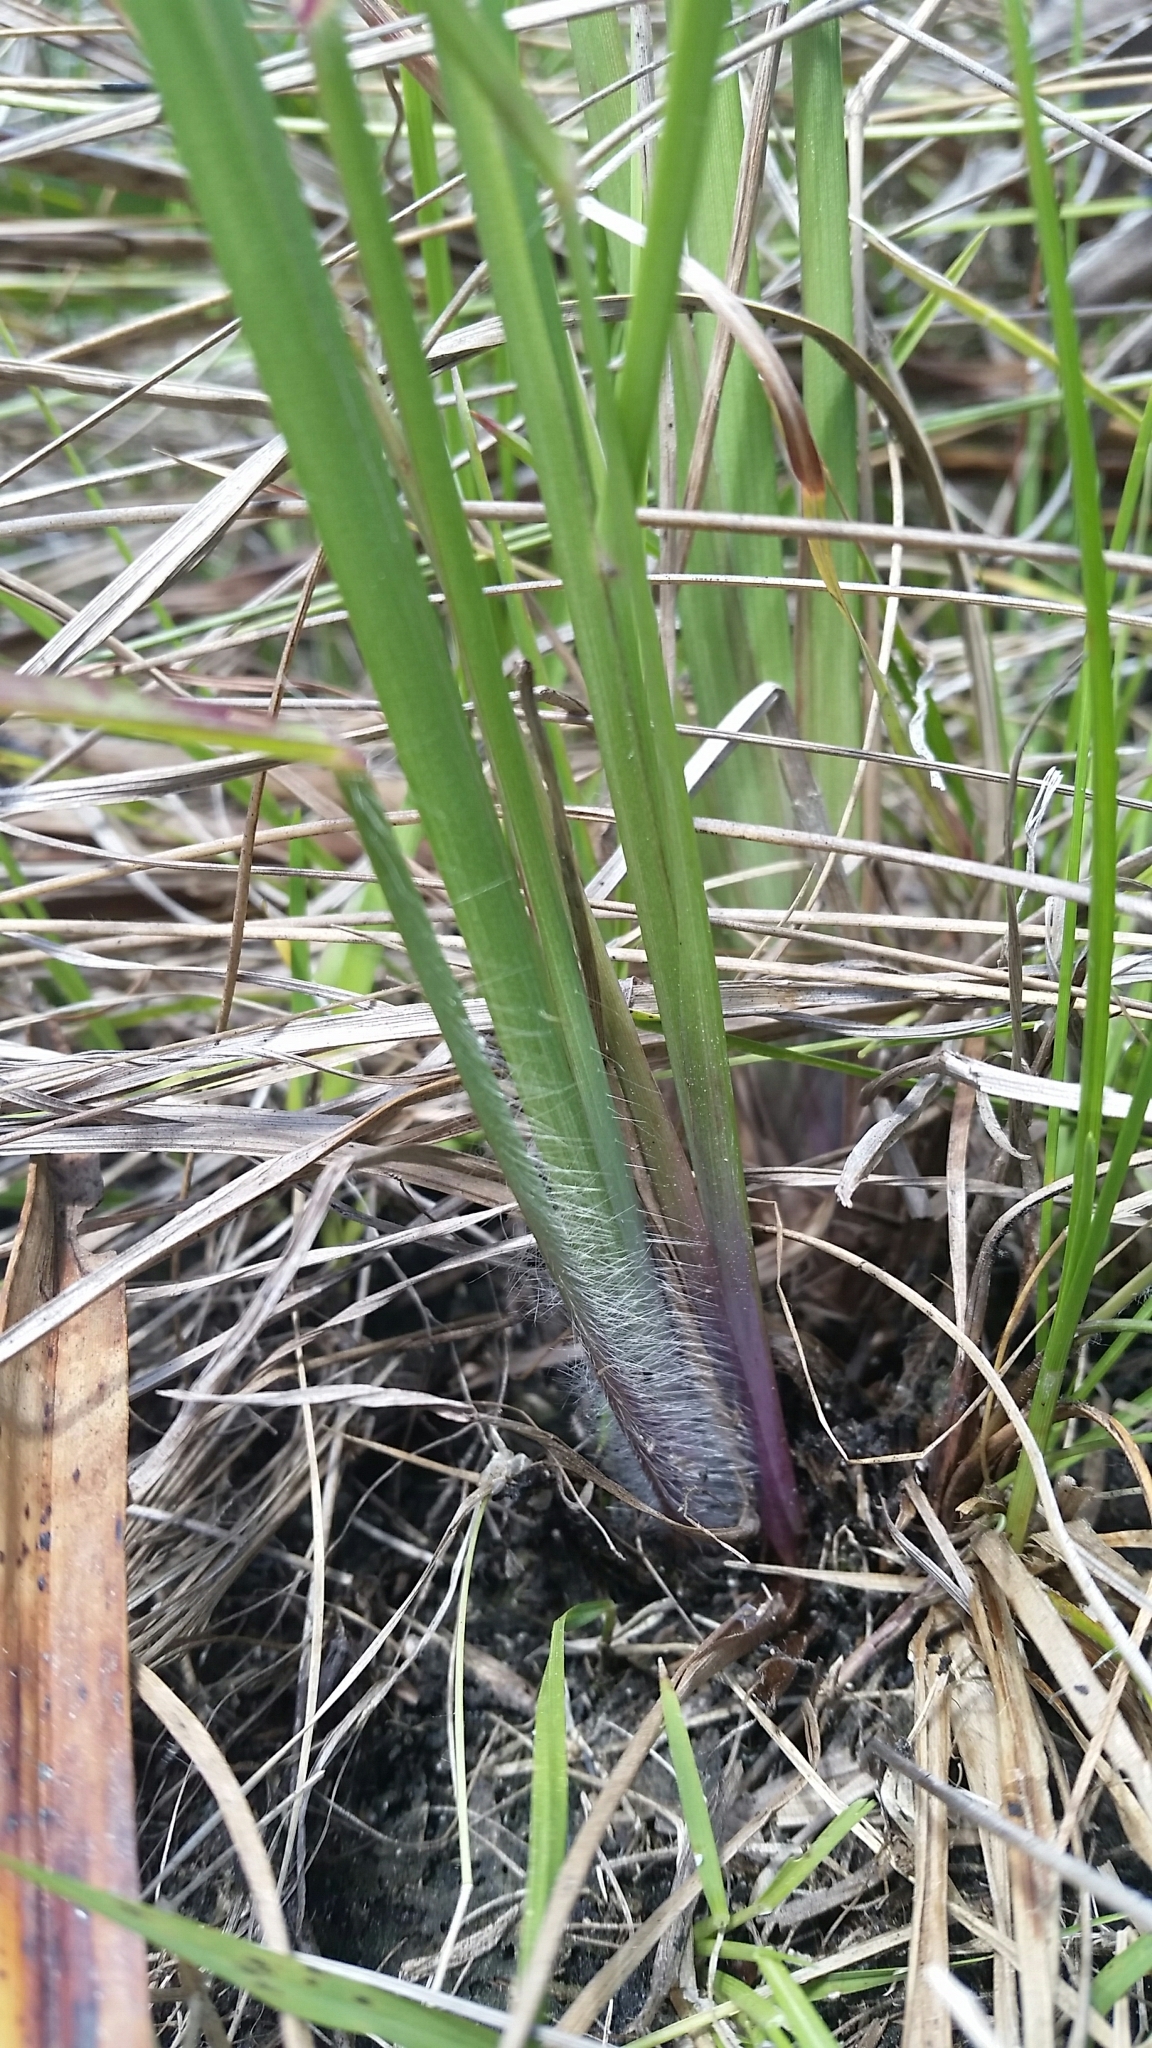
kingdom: Plantae
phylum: Tracheophyta
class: Liliopsida
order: Poales
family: Poaceae
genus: Paspalum
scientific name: Paspalum praecox
